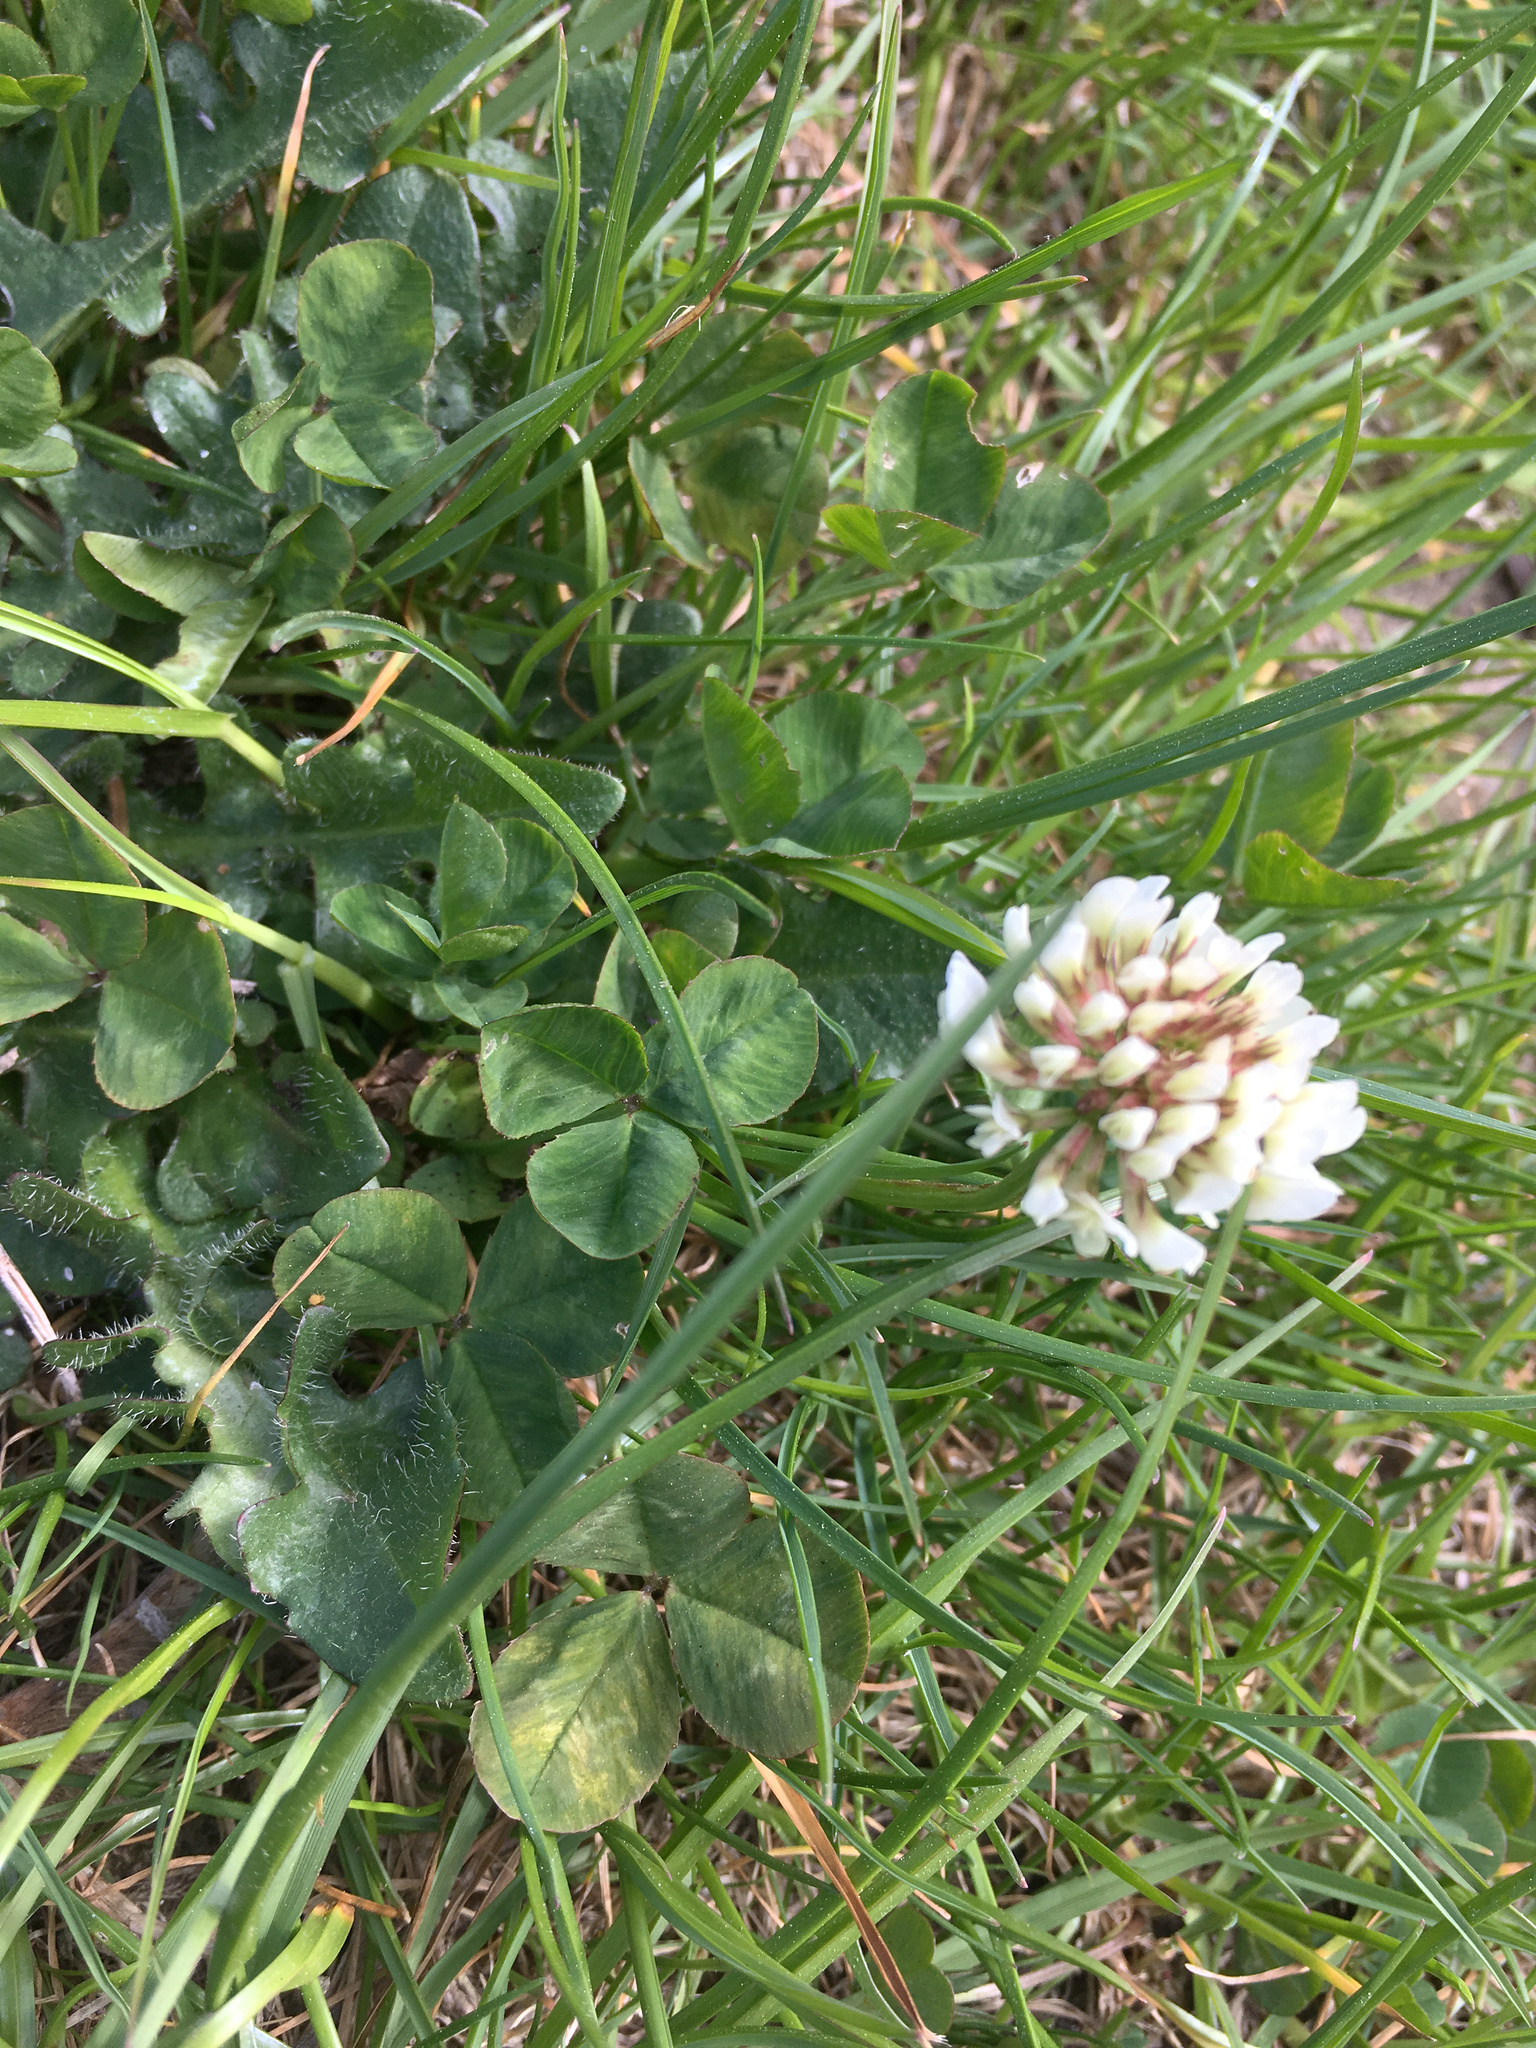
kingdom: Plantae
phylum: Tracheophyta
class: Magnoliopsida
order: Fabales
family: Fabaceae
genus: Trifolium
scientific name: Trifolium repens
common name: White clover
